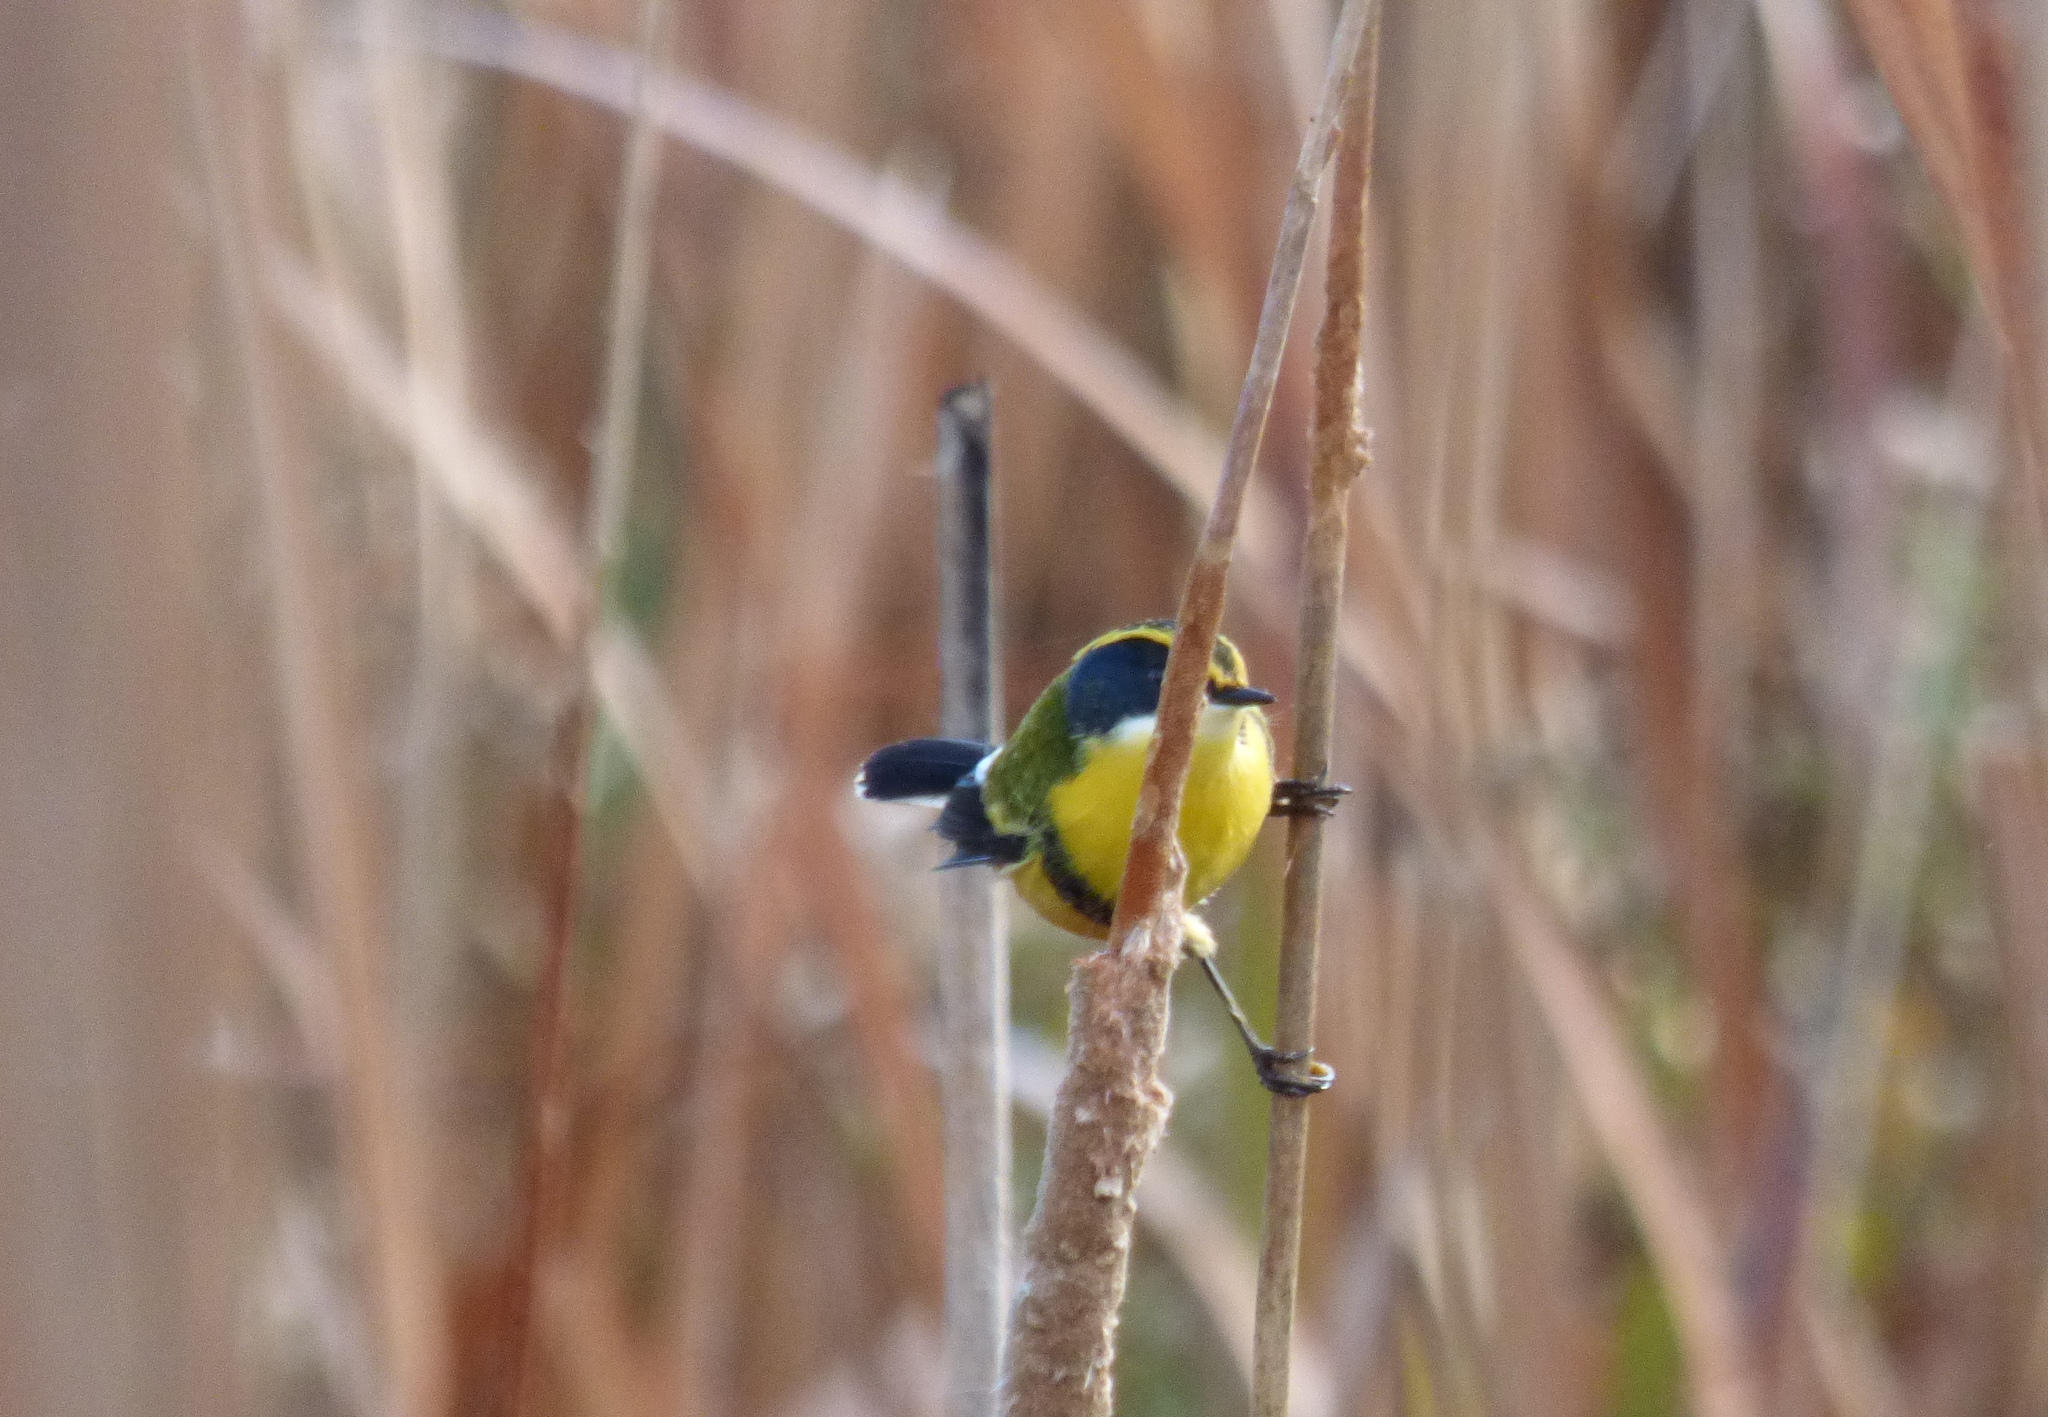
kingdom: Animalia
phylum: Chordata
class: Aves
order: Passeriformes
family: Tyrannidae
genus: Tachuris
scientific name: Tachuris rubrigastra
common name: Many-colored rush tyrant
